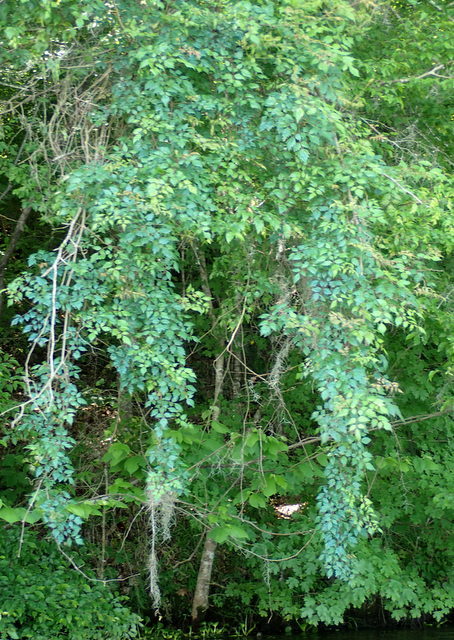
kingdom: Plantae
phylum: Tracheophyta
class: Magnoliopsida
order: Vitales
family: Vitaceae
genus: Nekemias
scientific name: Nekemias arborea
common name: Peppervine
